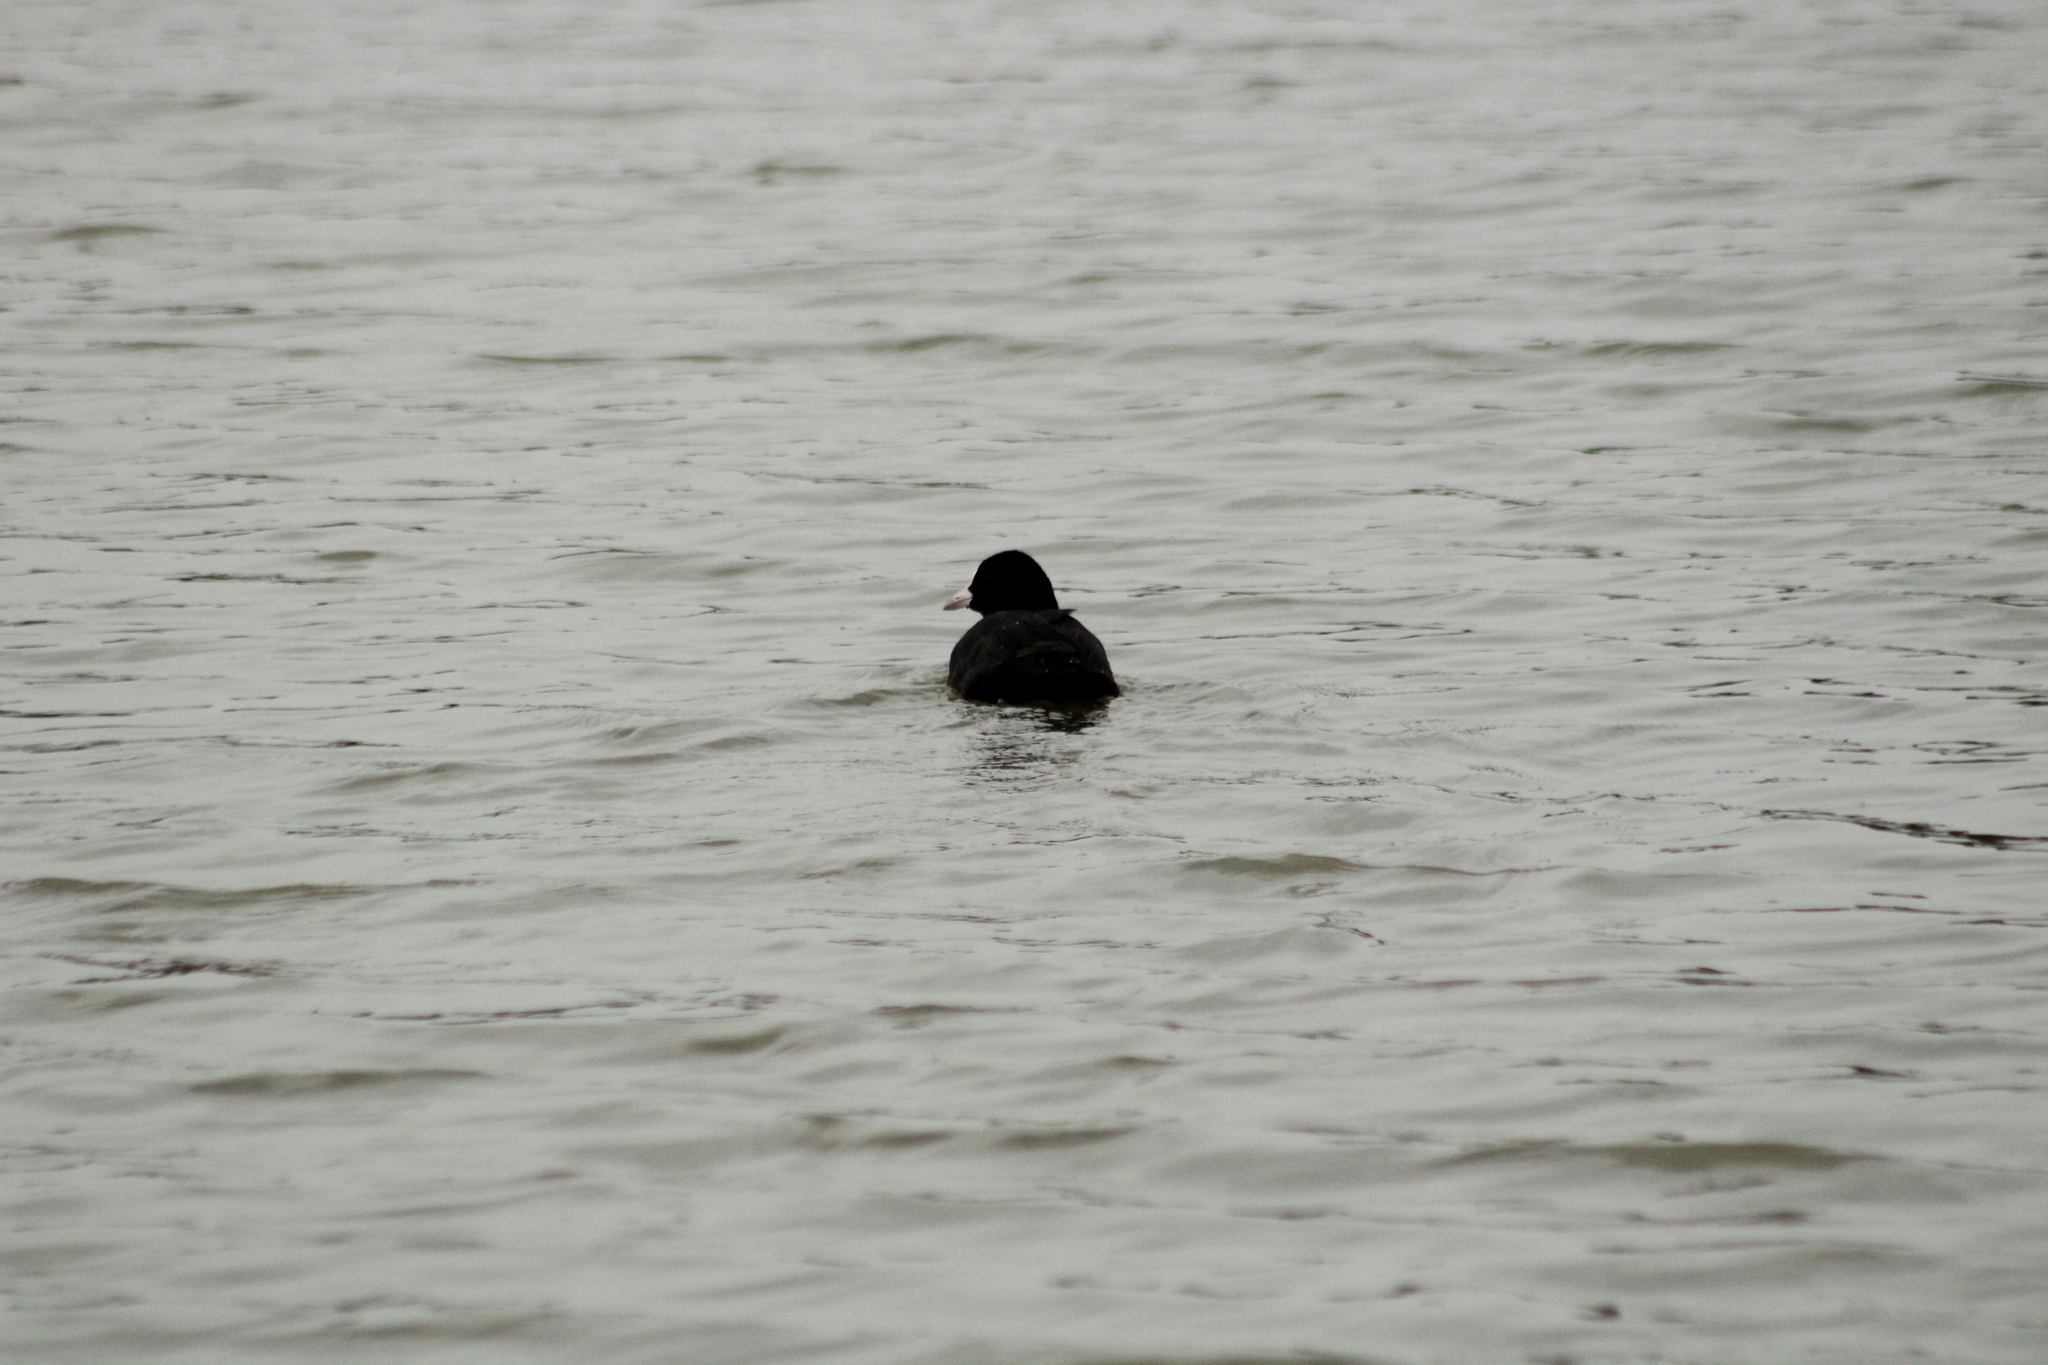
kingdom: Animalia
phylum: Chordata
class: Aves
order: Gruiformes
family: Rallidae
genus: Fulica
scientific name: Fulica atra
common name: Eurasian coot
